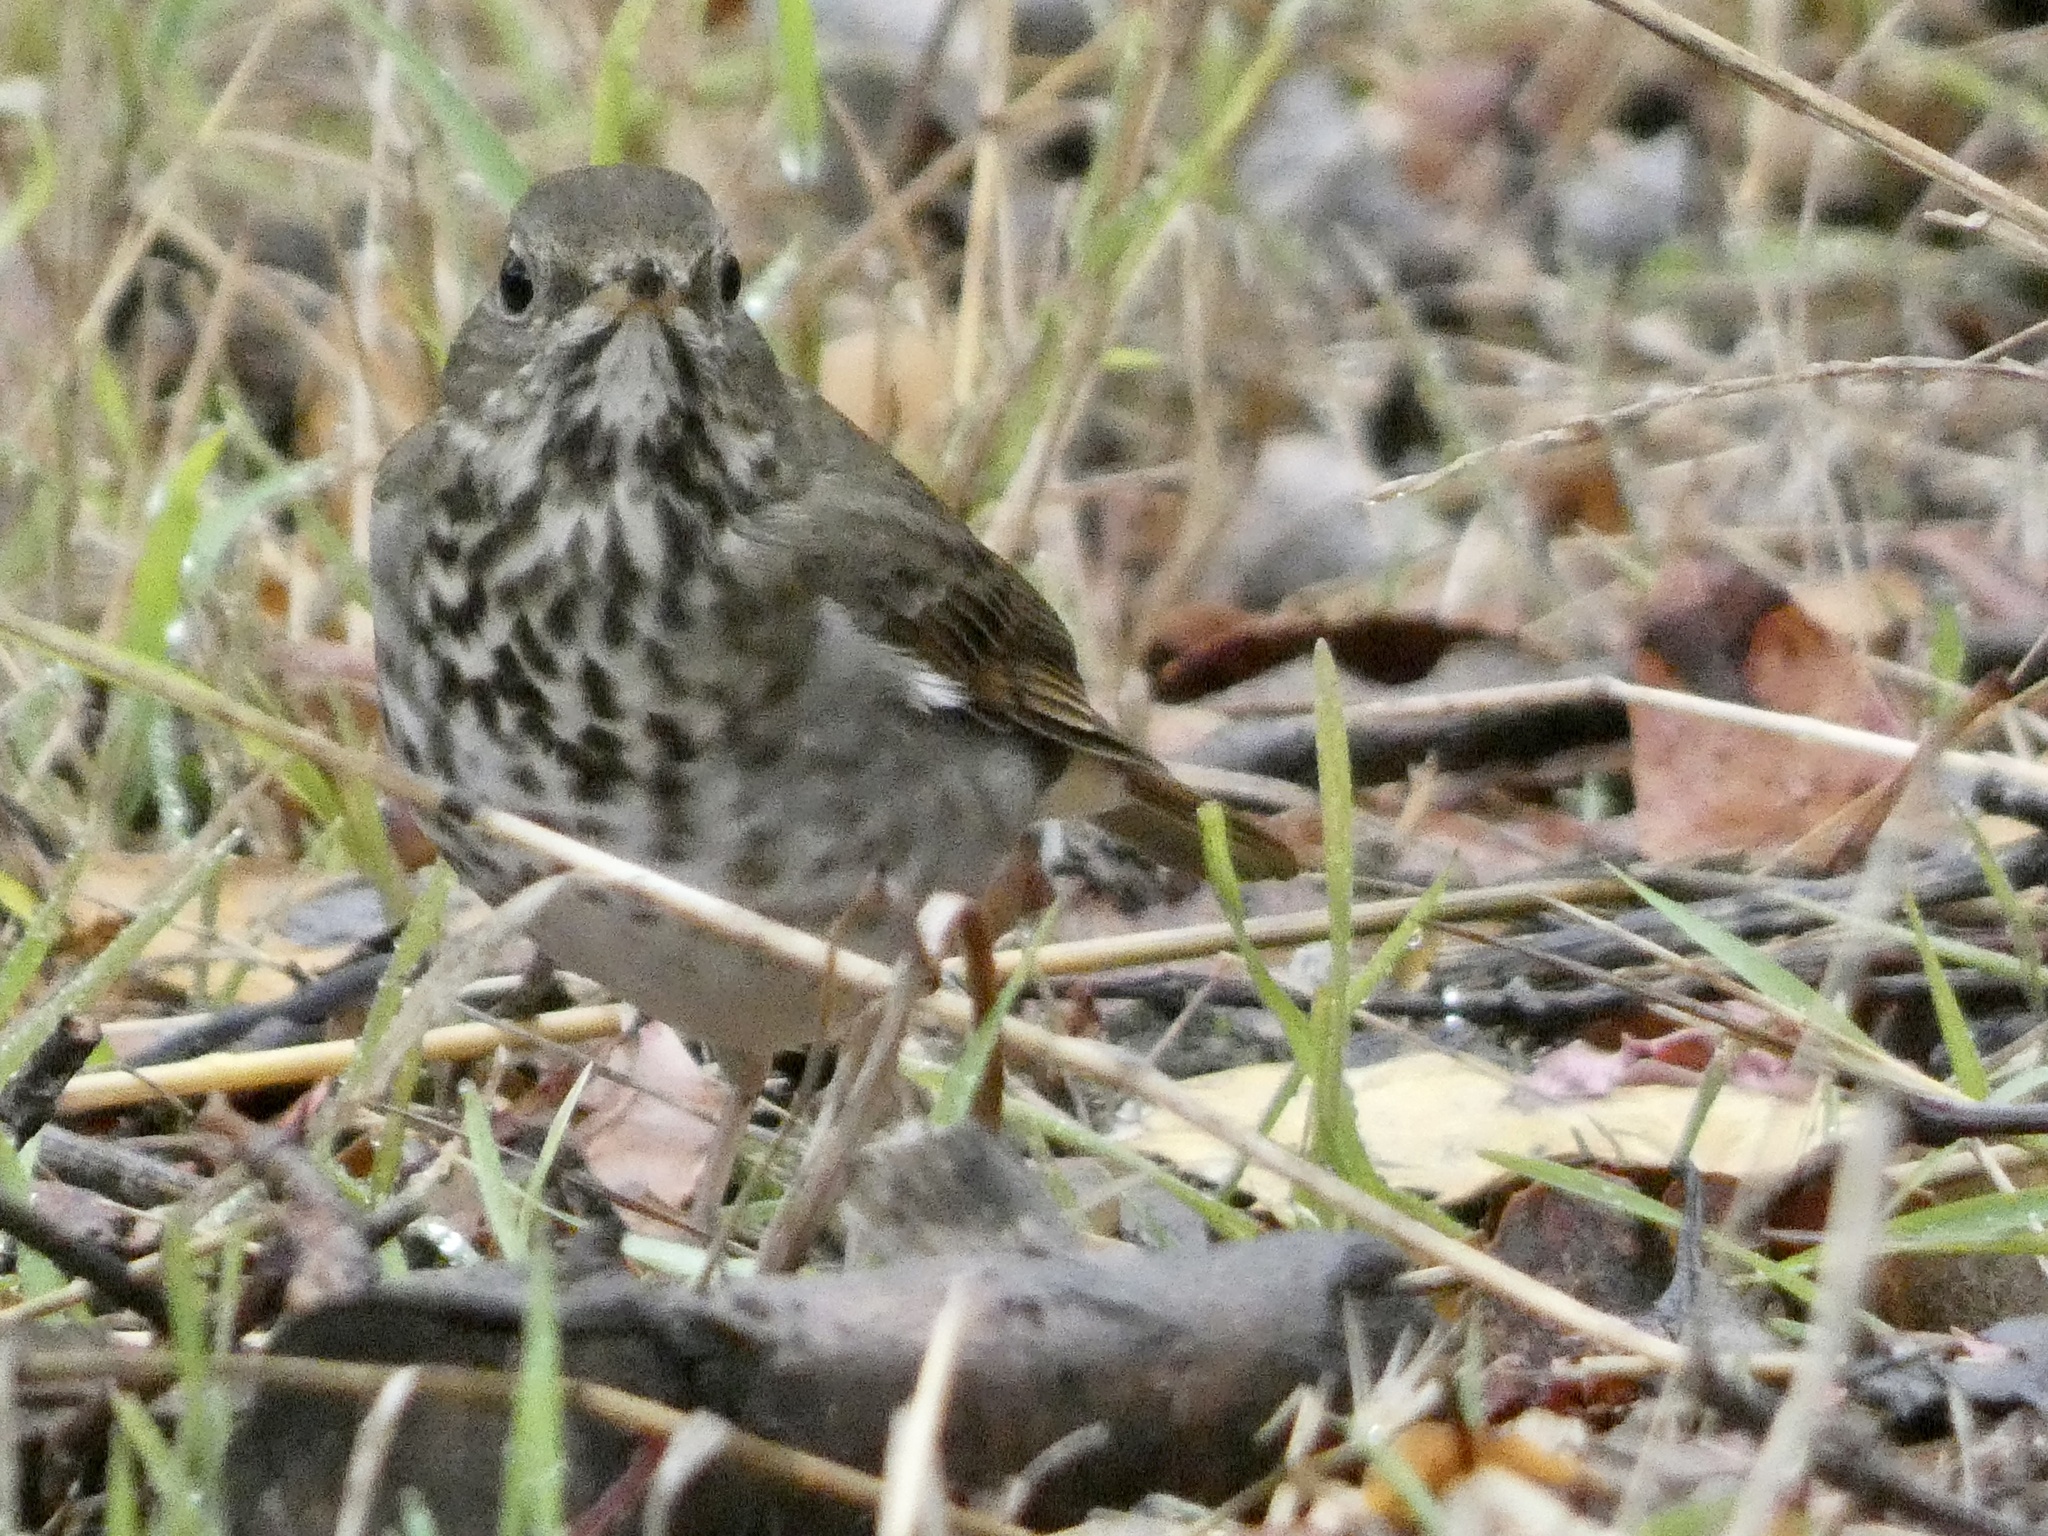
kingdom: Animalia
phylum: Chordata
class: Aves
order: Passeriformes
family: Turdidae
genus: Catharus
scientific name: Catharus guttatus
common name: Hermit thrush
